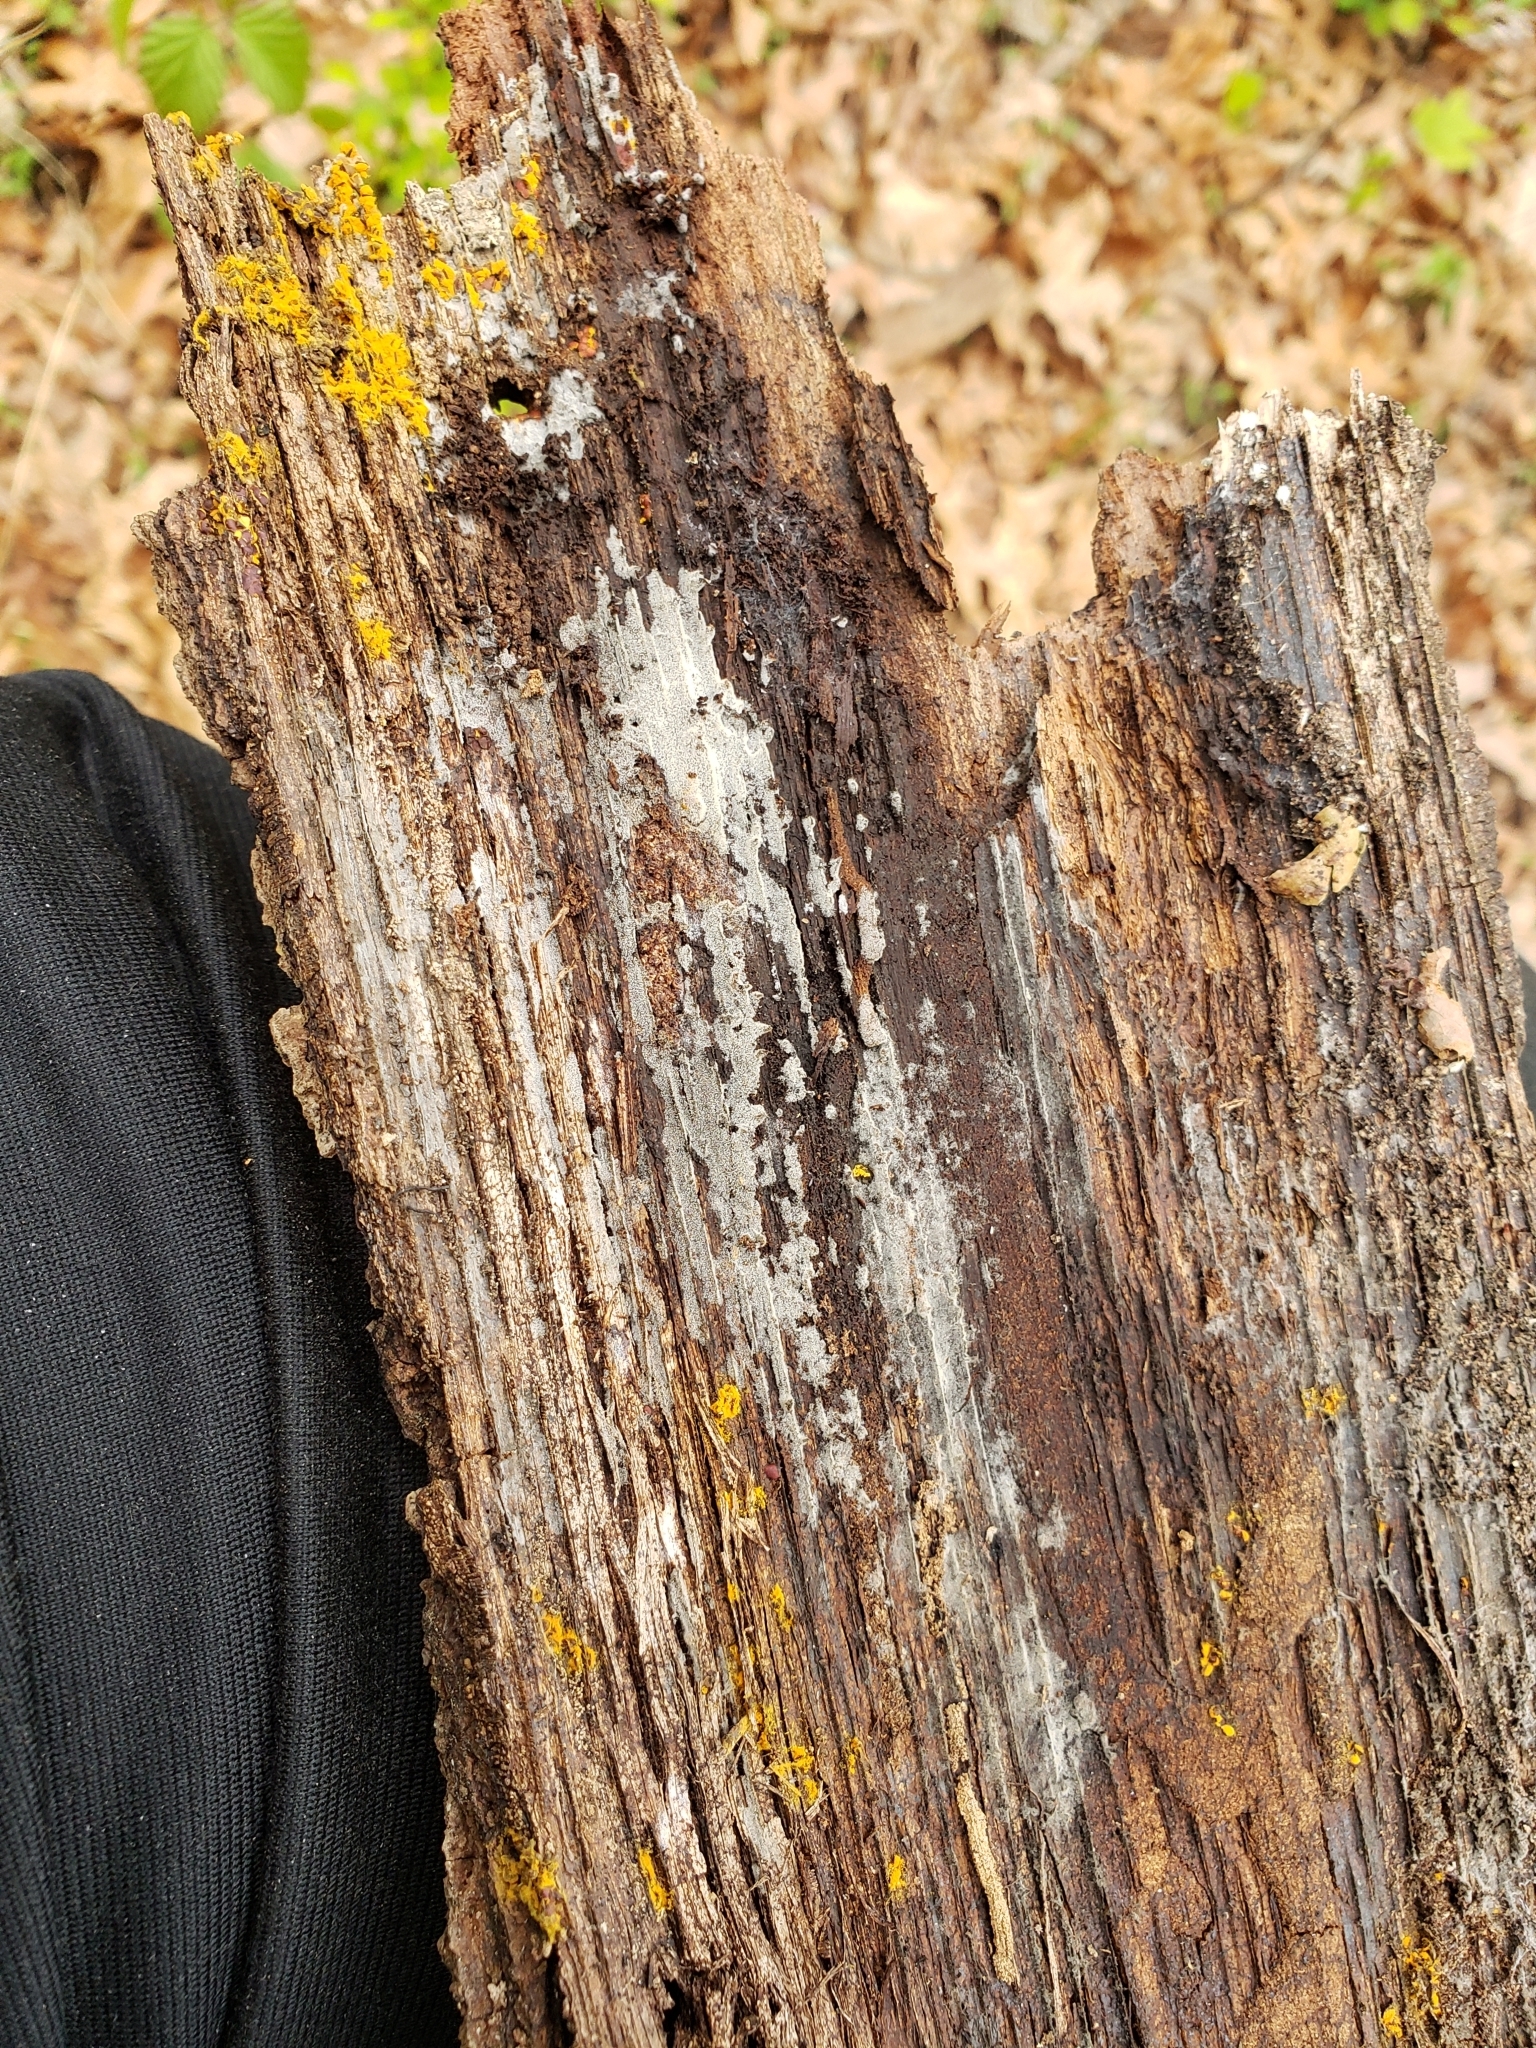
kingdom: Animalia
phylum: Arthropoda
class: Insecta
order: Coleoptera
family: Scarabaeidae
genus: Valgus
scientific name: Valgus canaliculatus
